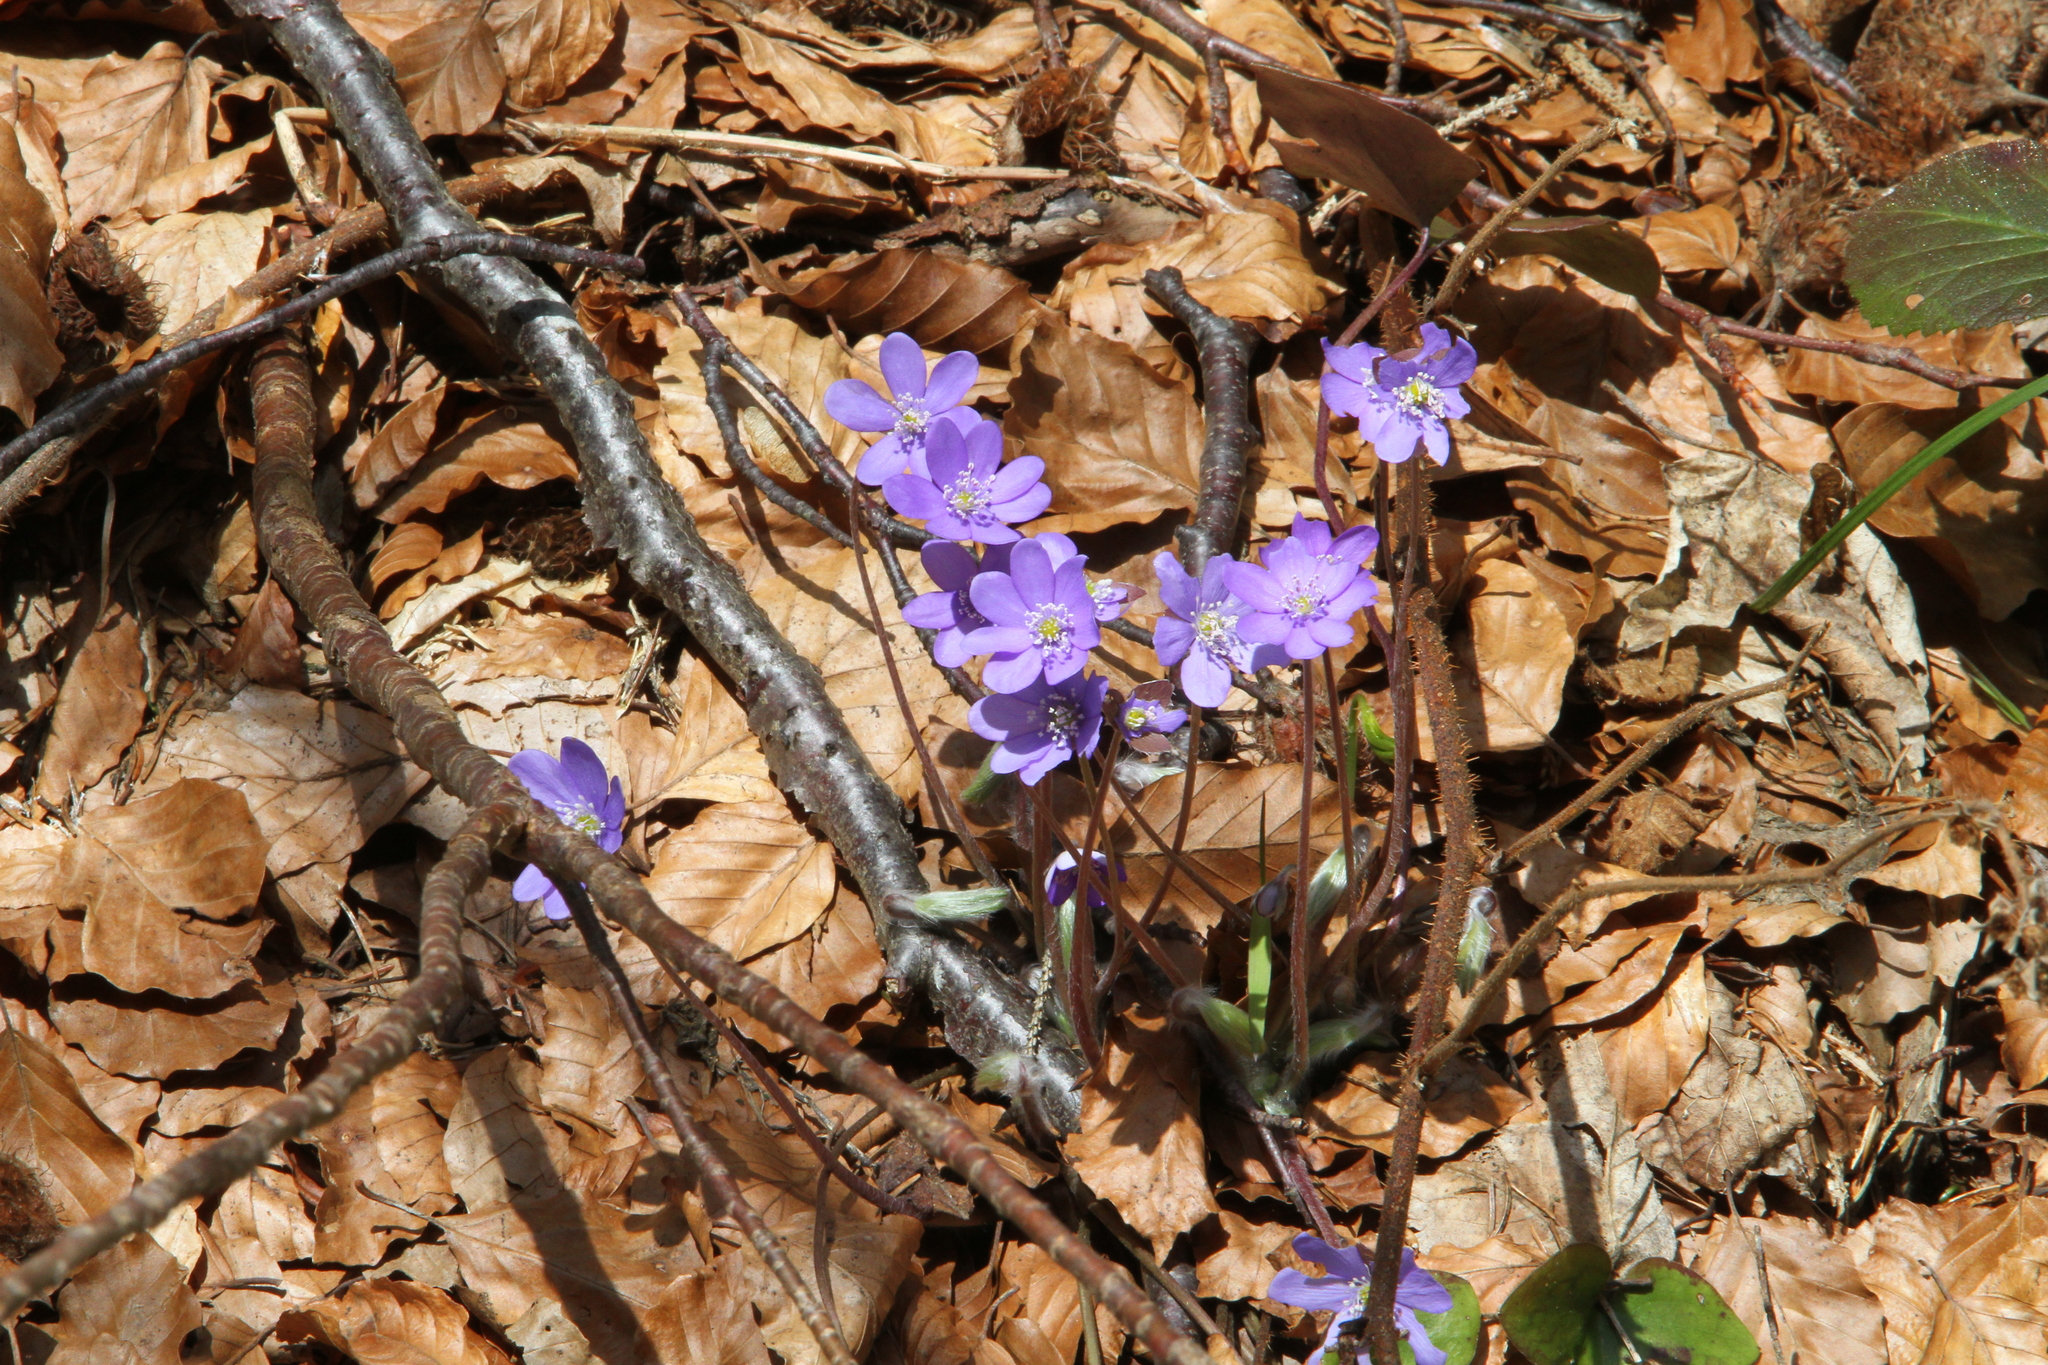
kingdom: Plantae
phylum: Tracheophyta
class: Magnoliopsida
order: Ranunculales
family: Ranunculaceae
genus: Hepatica
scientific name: Hepatica nobilis
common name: Liverleaf
